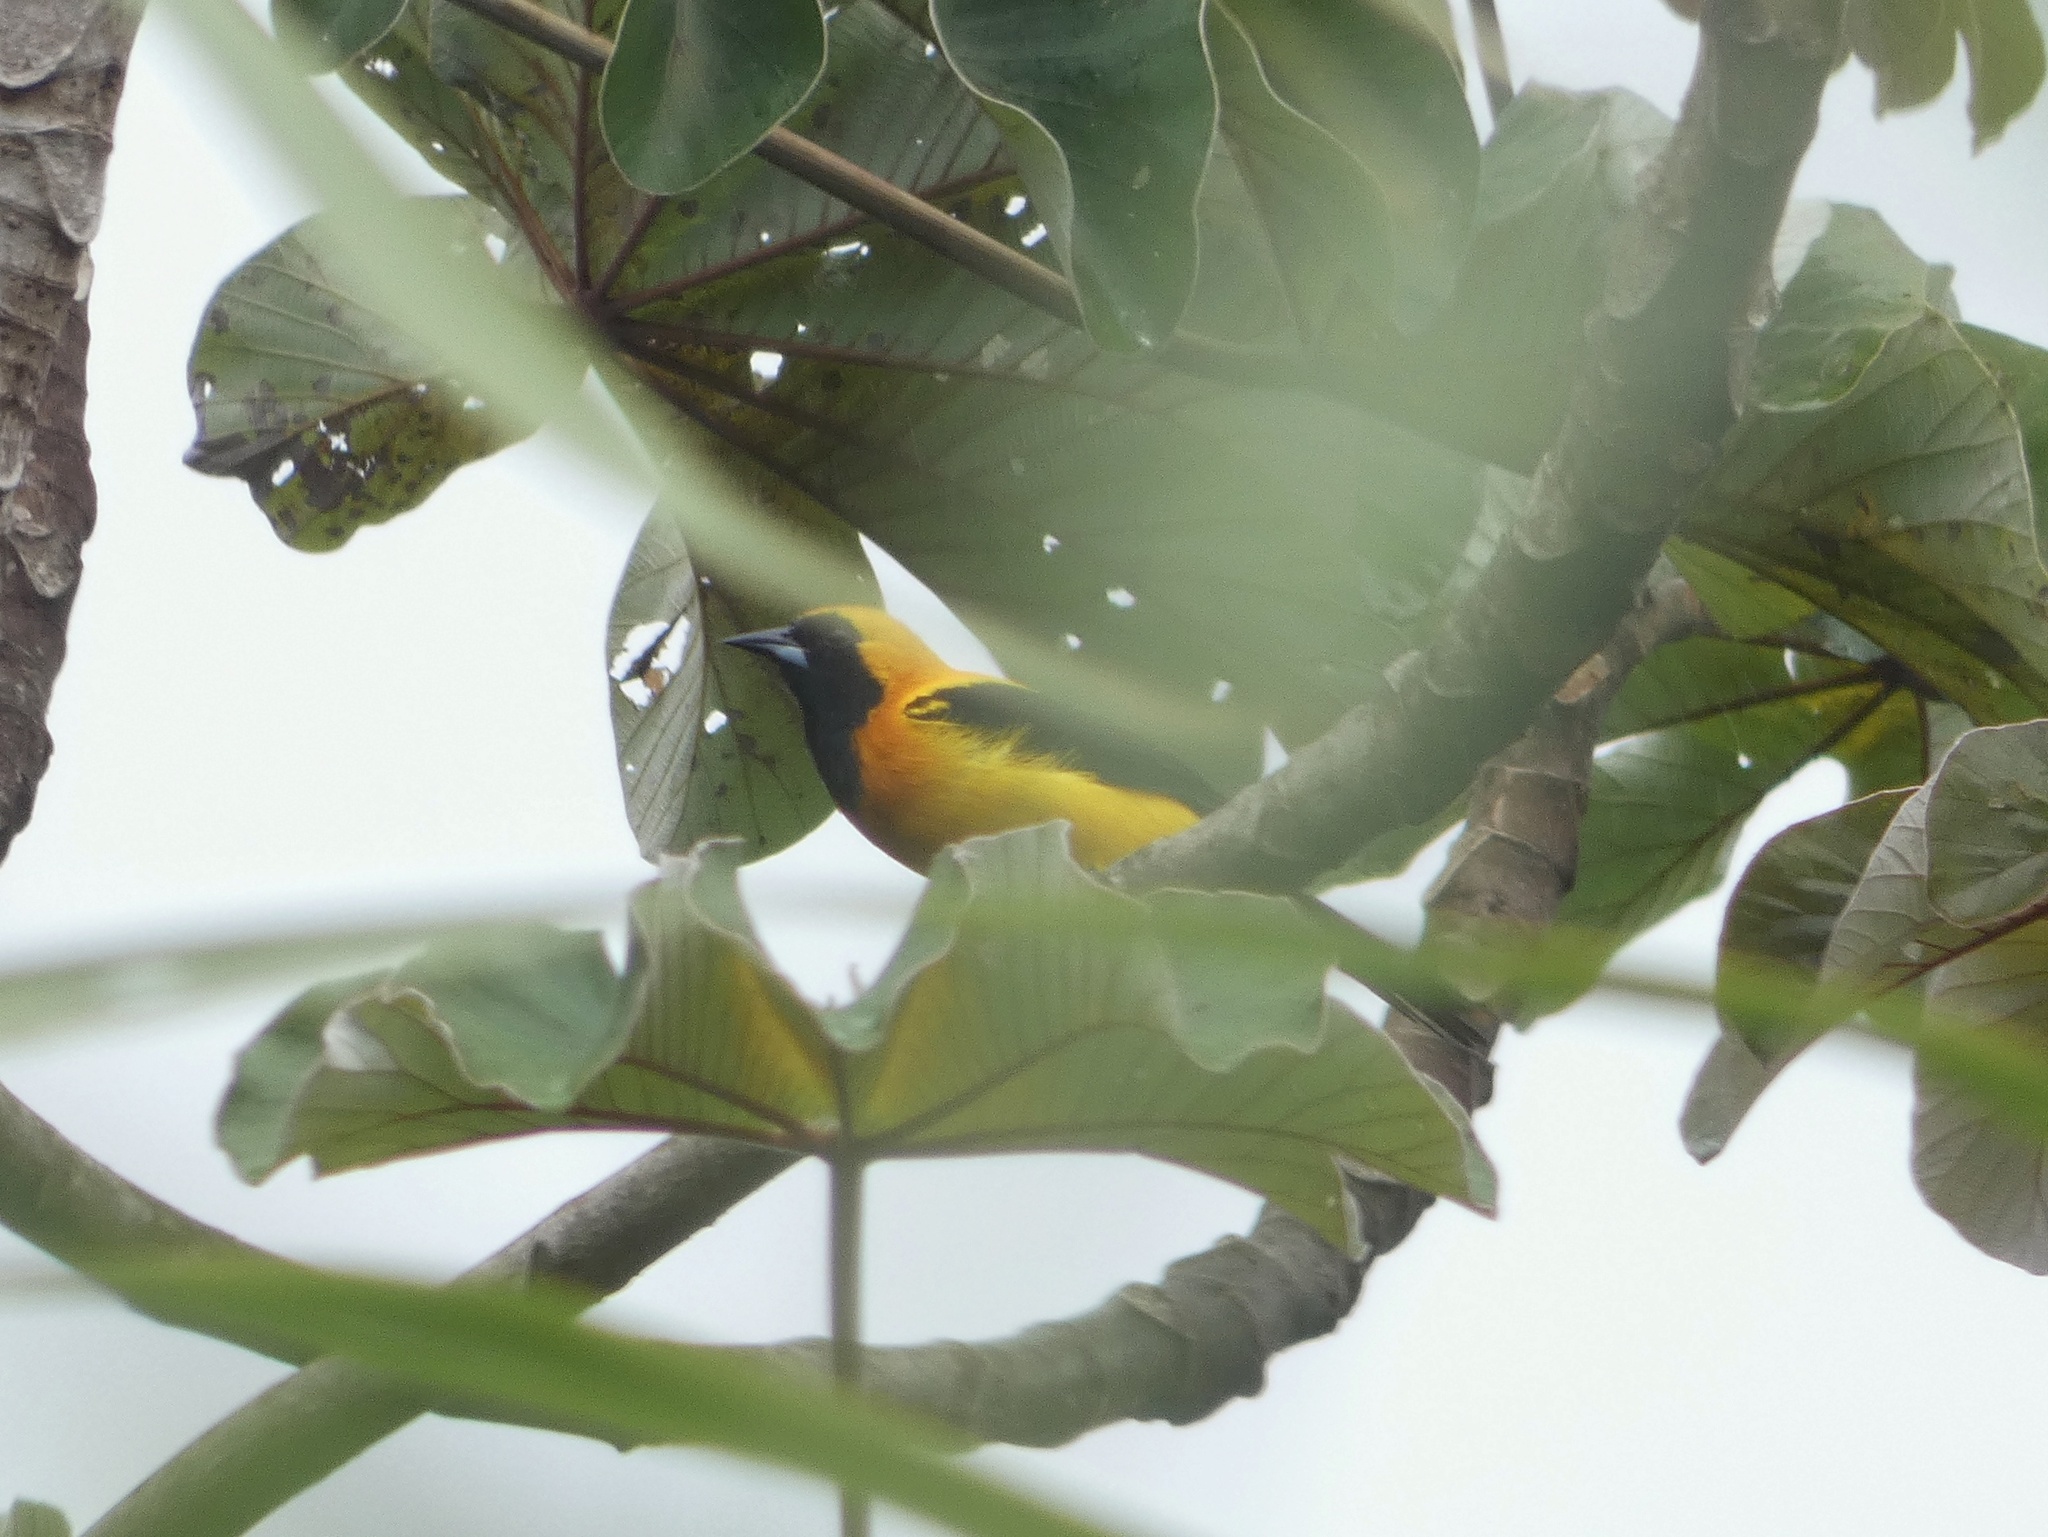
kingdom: Animalia
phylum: Chordata
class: Aves
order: Passeriformes
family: Icteridae
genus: Icterus
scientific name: Icterus chrysater
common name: Yellow-backed oriole
